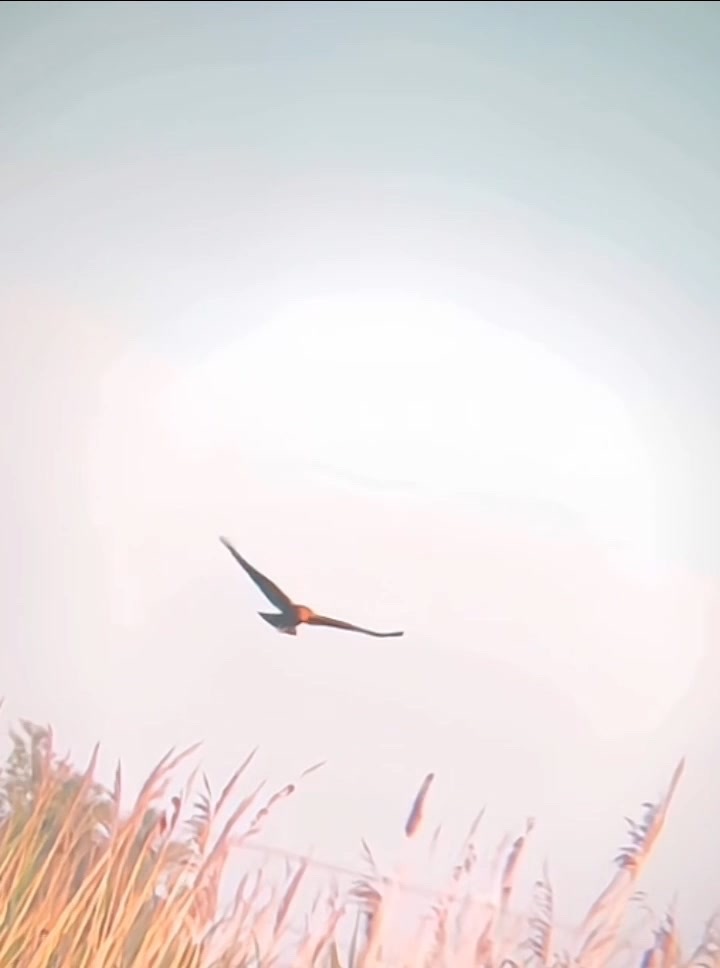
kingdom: Animalia
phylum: Chordata
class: Aves
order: Accipitriformes
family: Accipitridae
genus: Circus
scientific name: Circus aeruginosus
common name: Western marsh harrier
